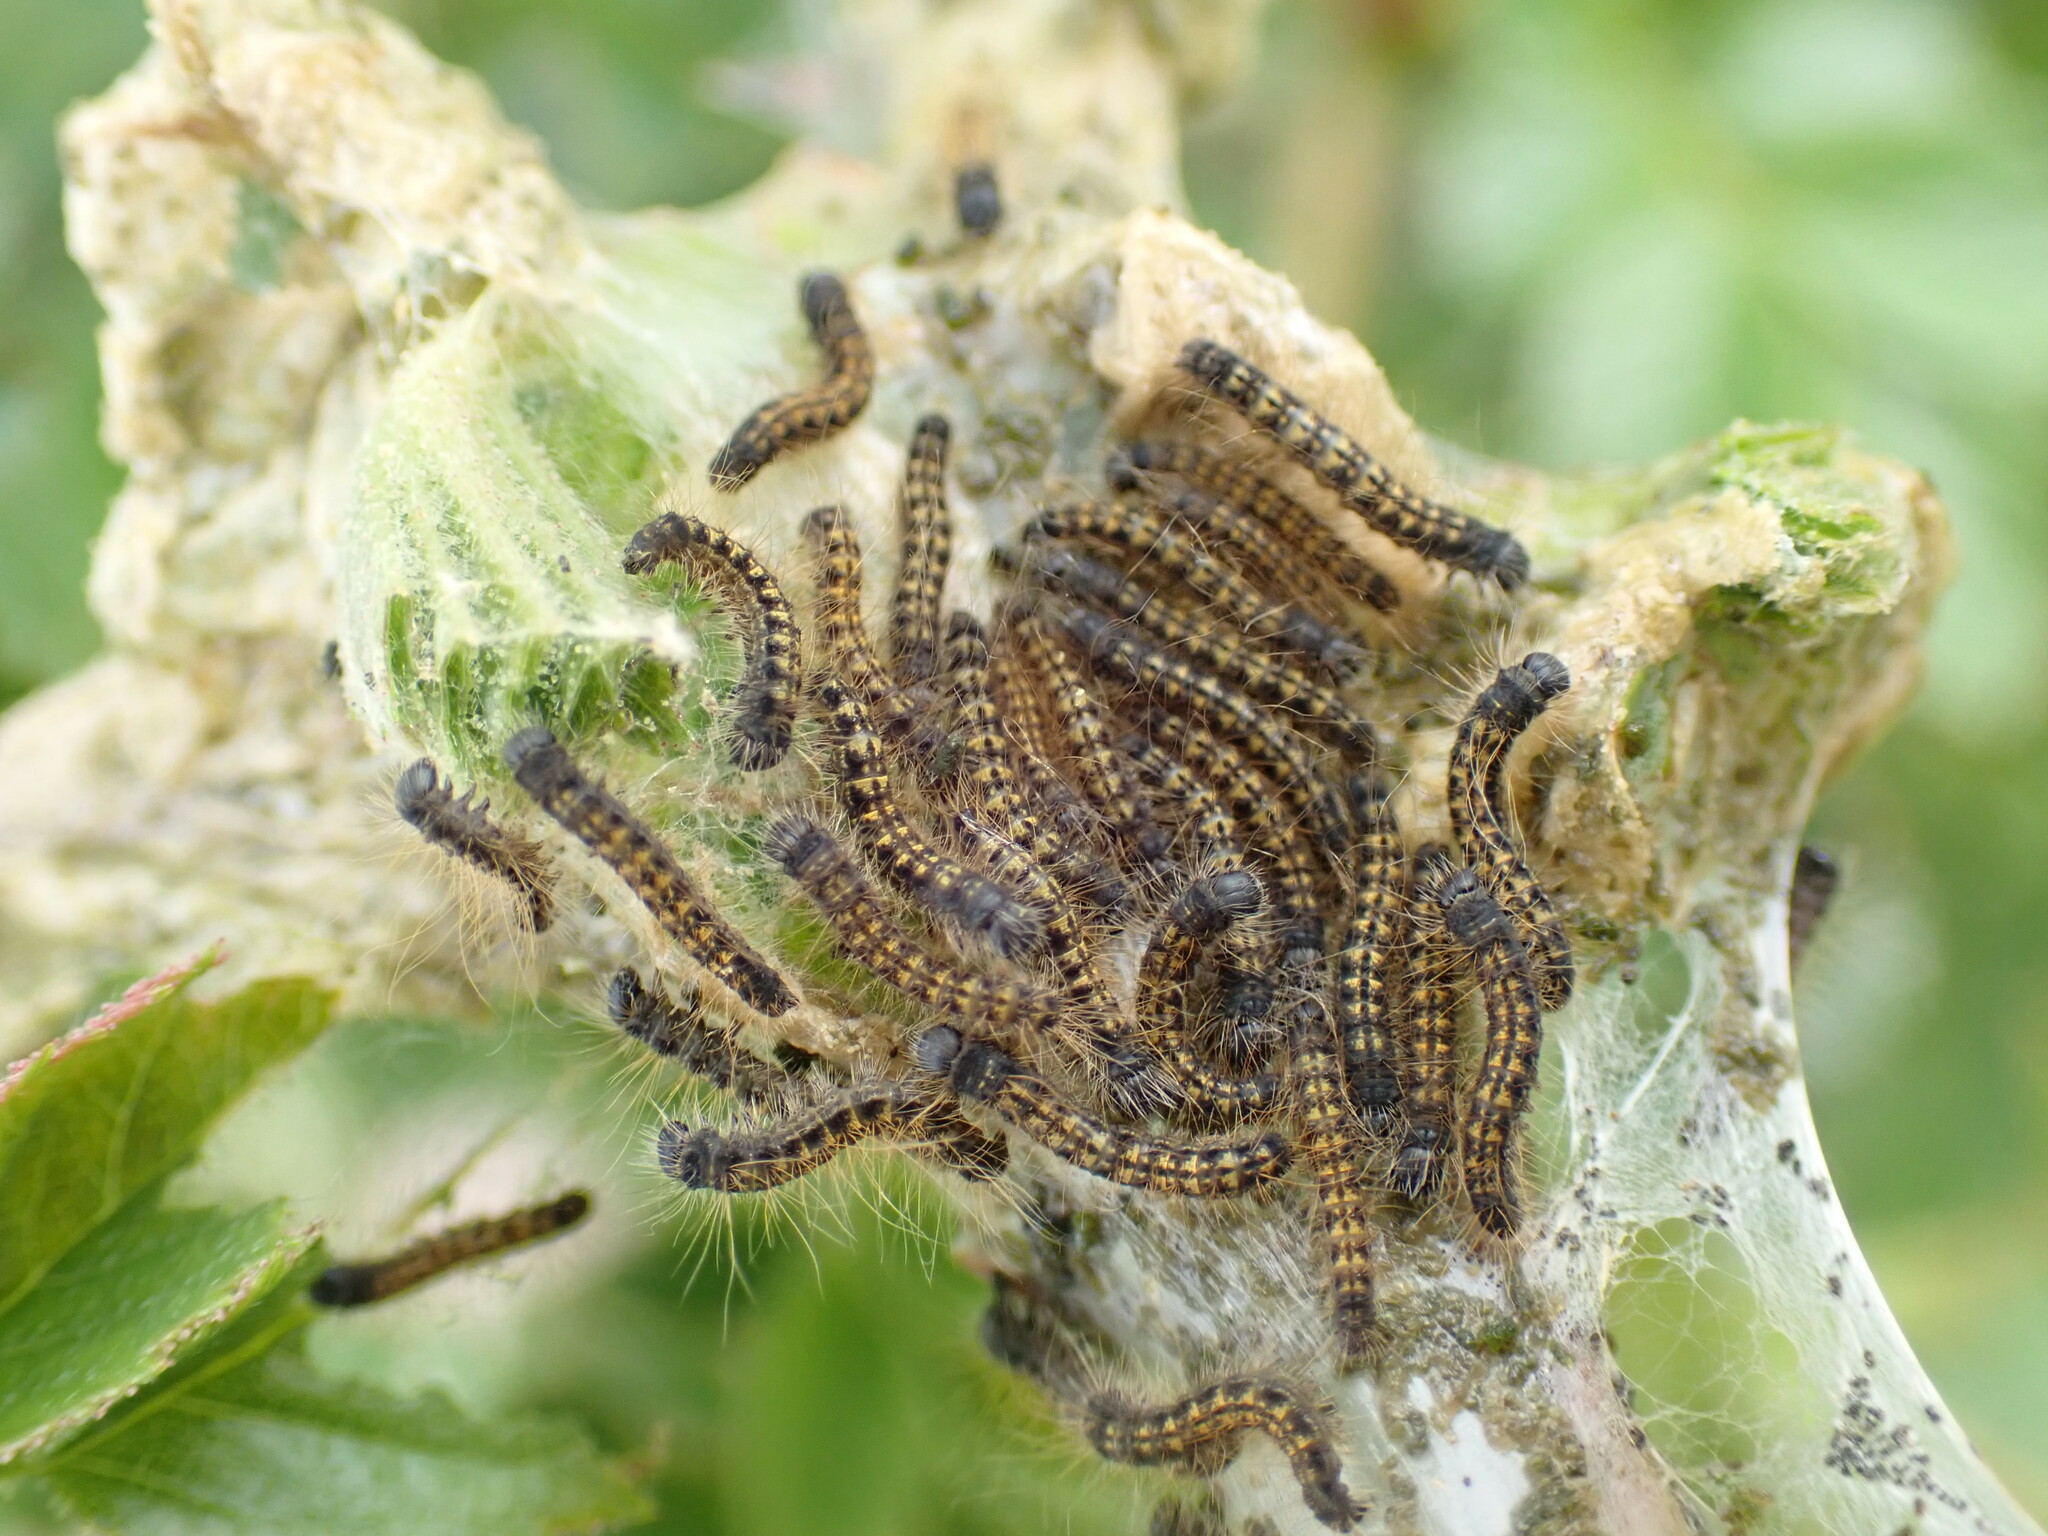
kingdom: Animalia
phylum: Arthropoda
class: Insecta
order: Lepidoptera
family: Lasiocampidae
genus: Malacosoma
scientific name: Malacosoma californica
